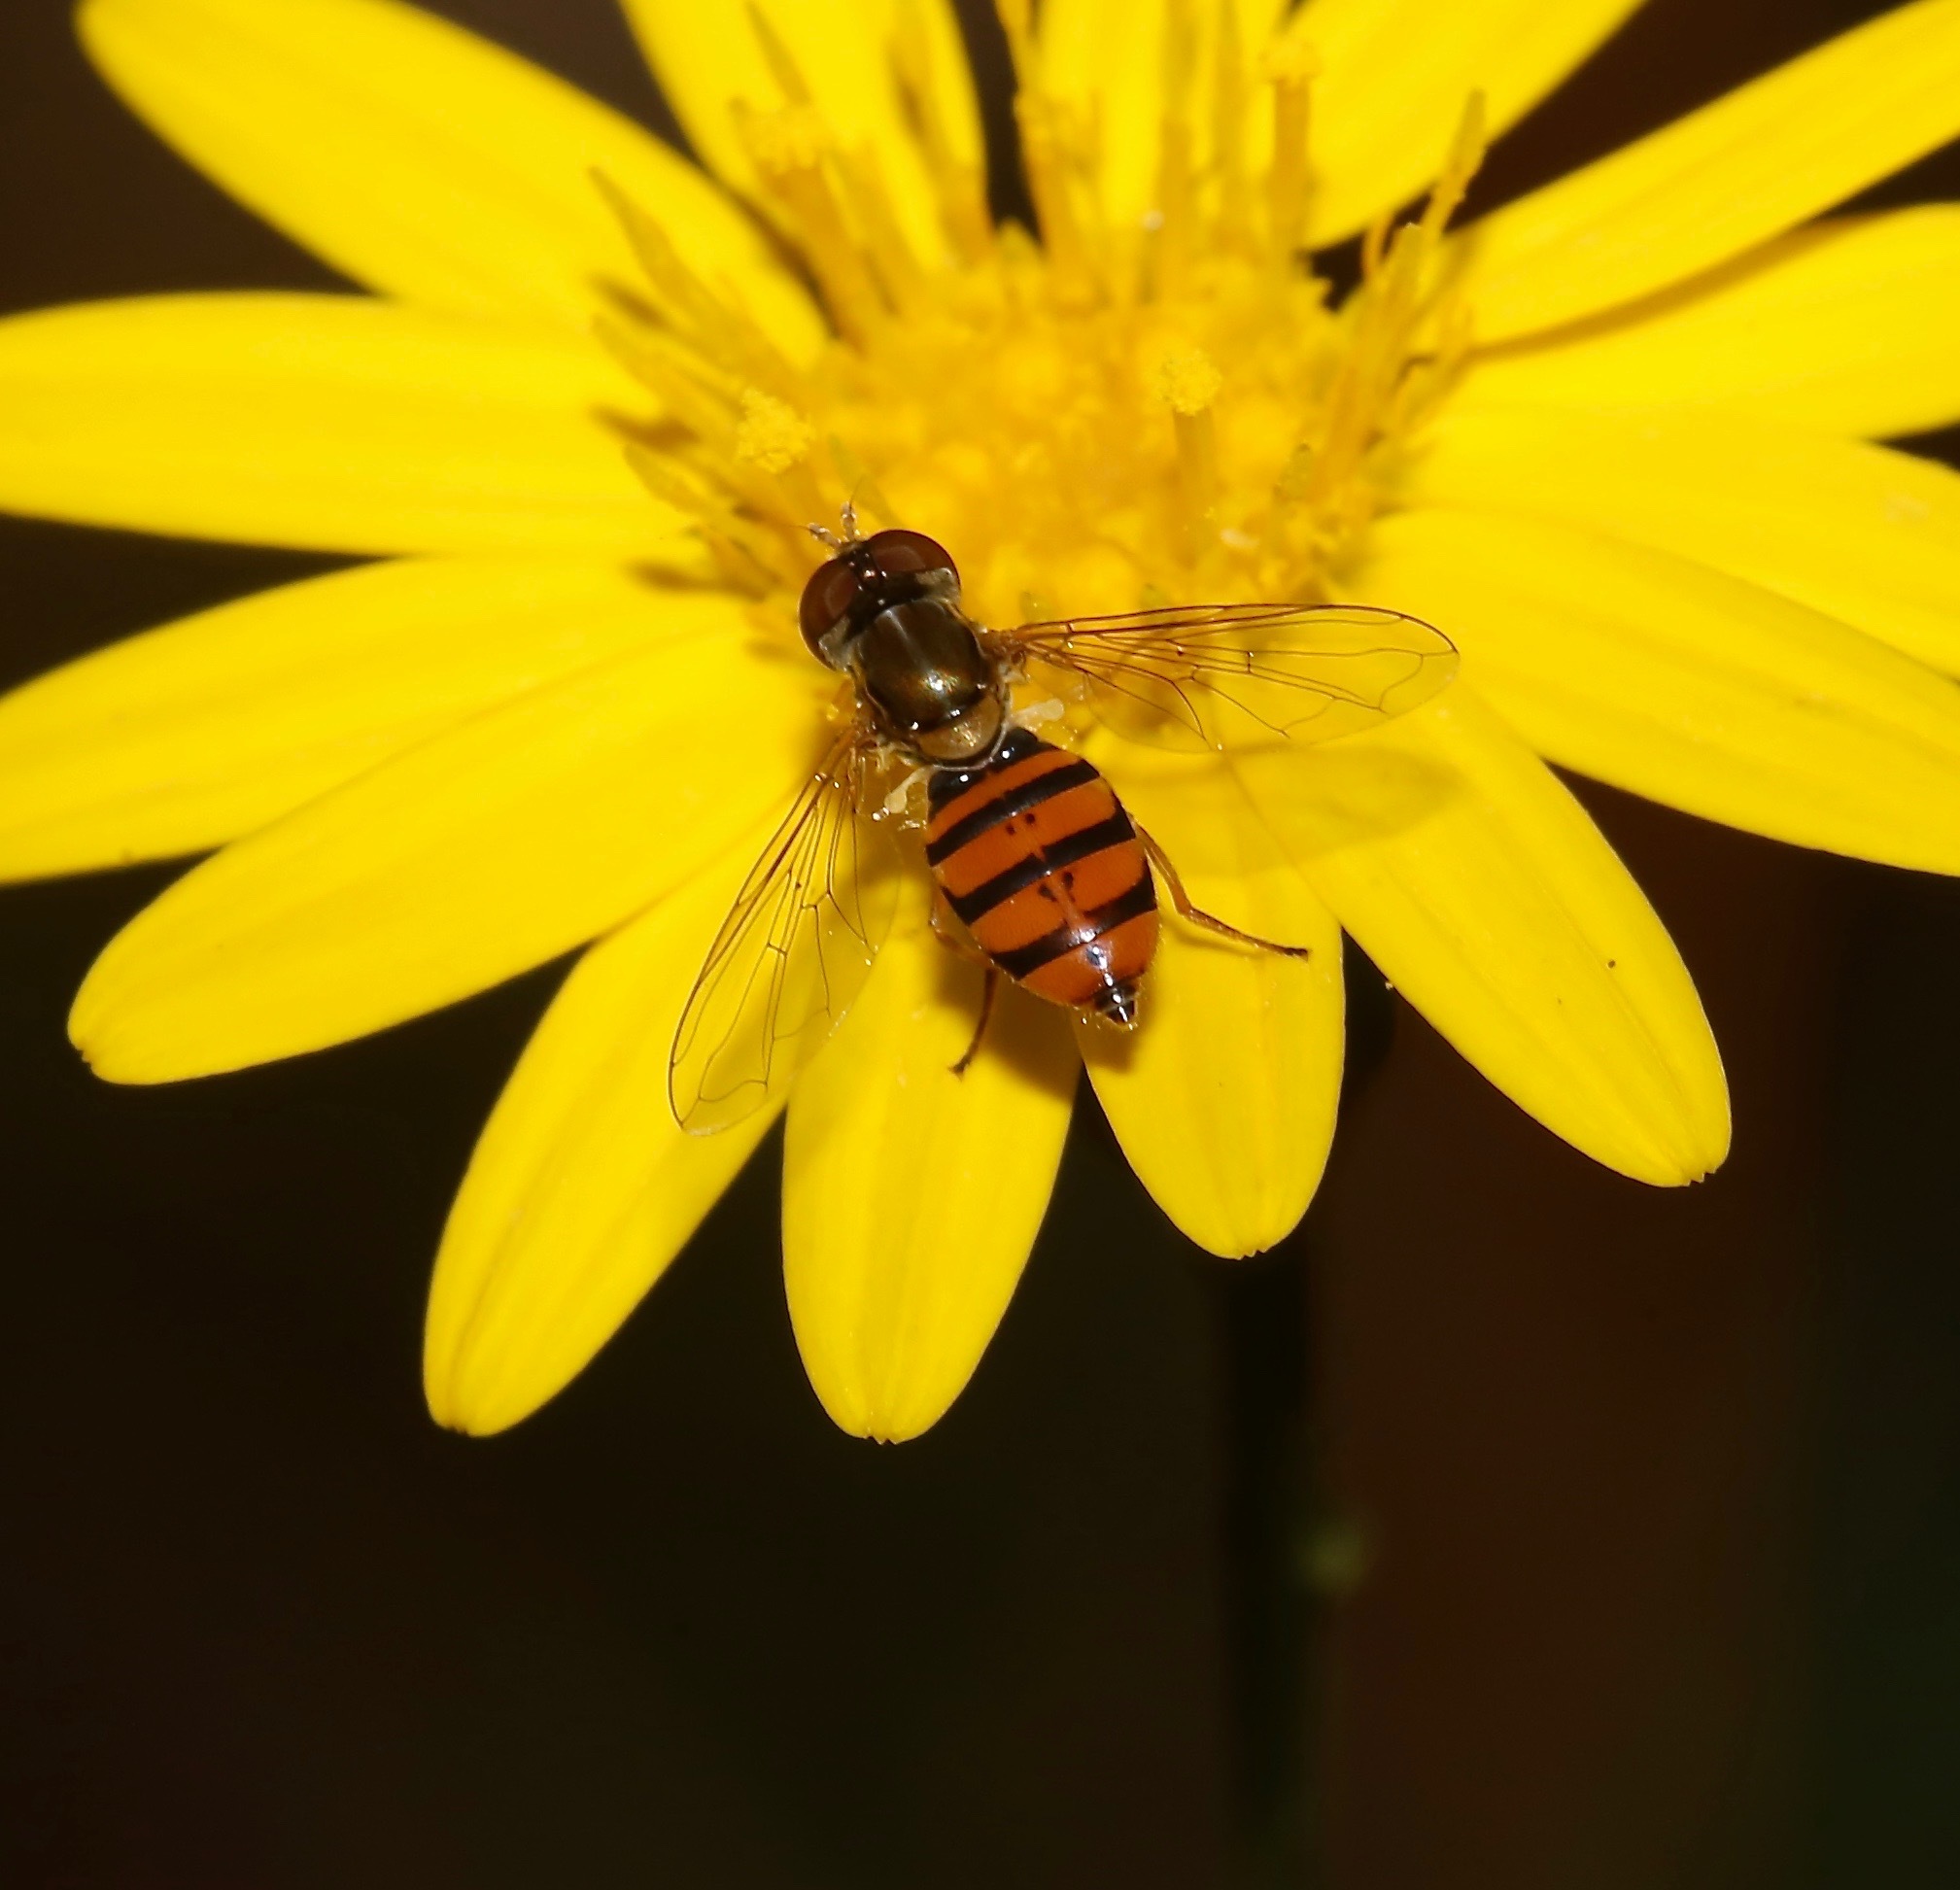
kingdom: Animalia
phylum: Arthropoda
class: Insecta
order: Diptera
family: Syrphidae
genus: Toxomerus
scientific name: Toxomerus corbis
